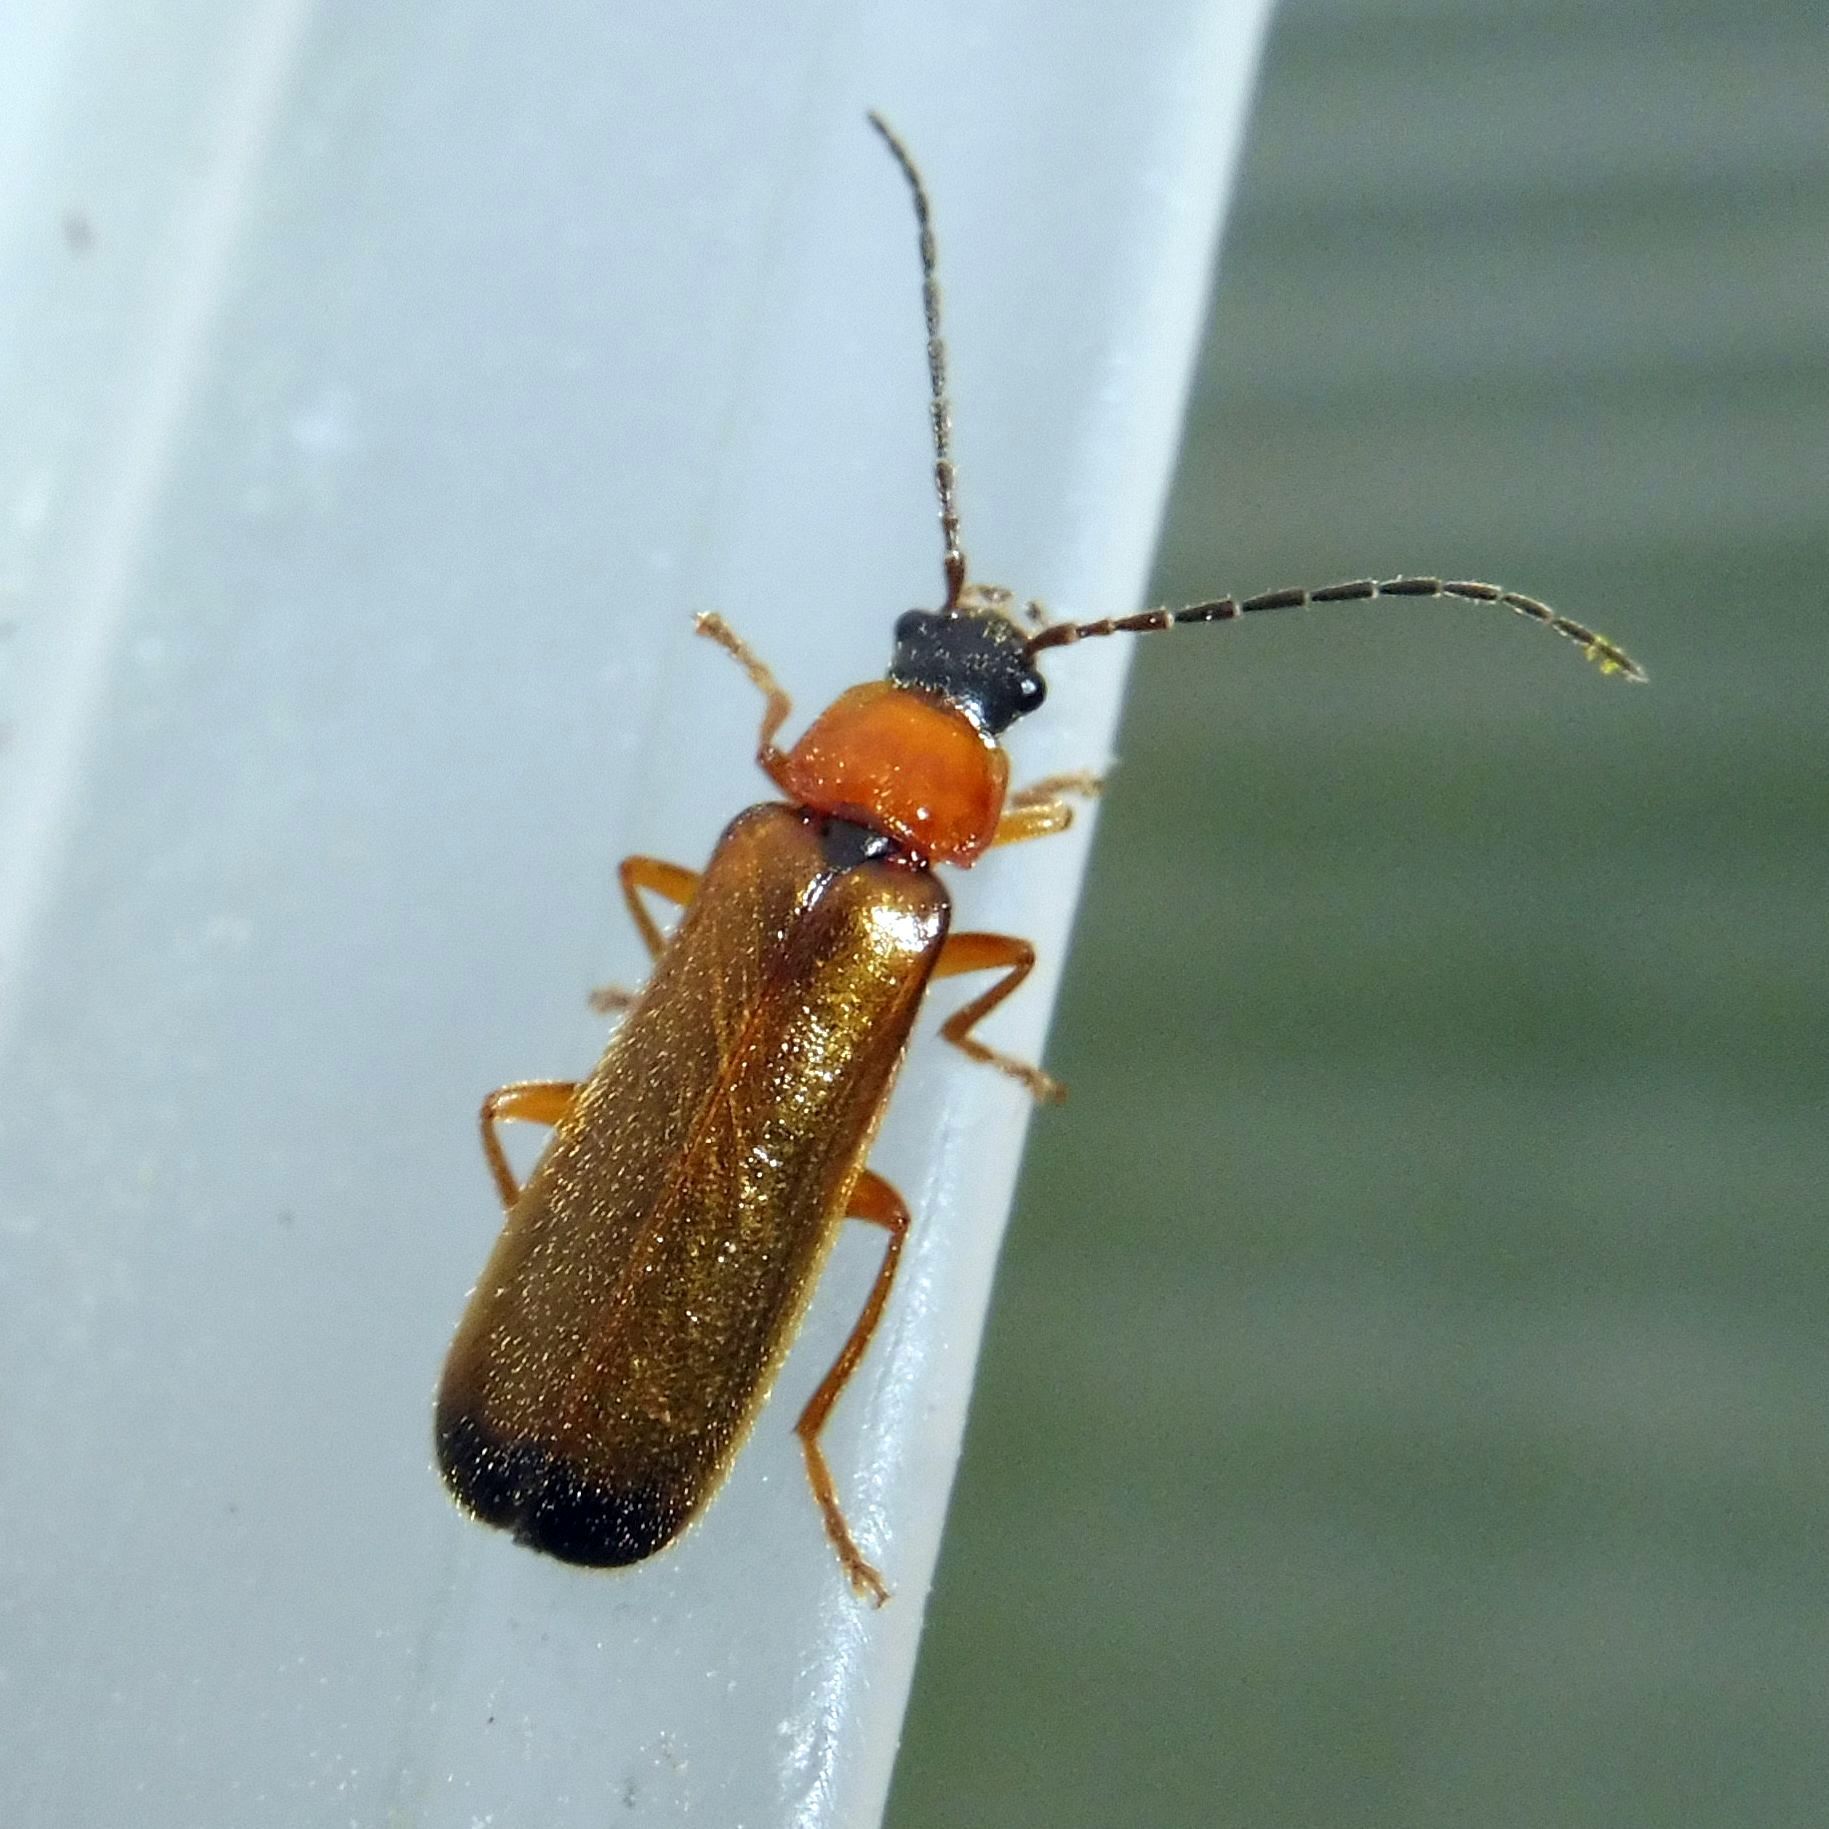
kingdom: Animalia
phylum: Arthropoda
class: Insecta
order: Coleoptera
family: Cantharidae
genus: Rhagonycha
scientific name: Rhagonycha lutea
